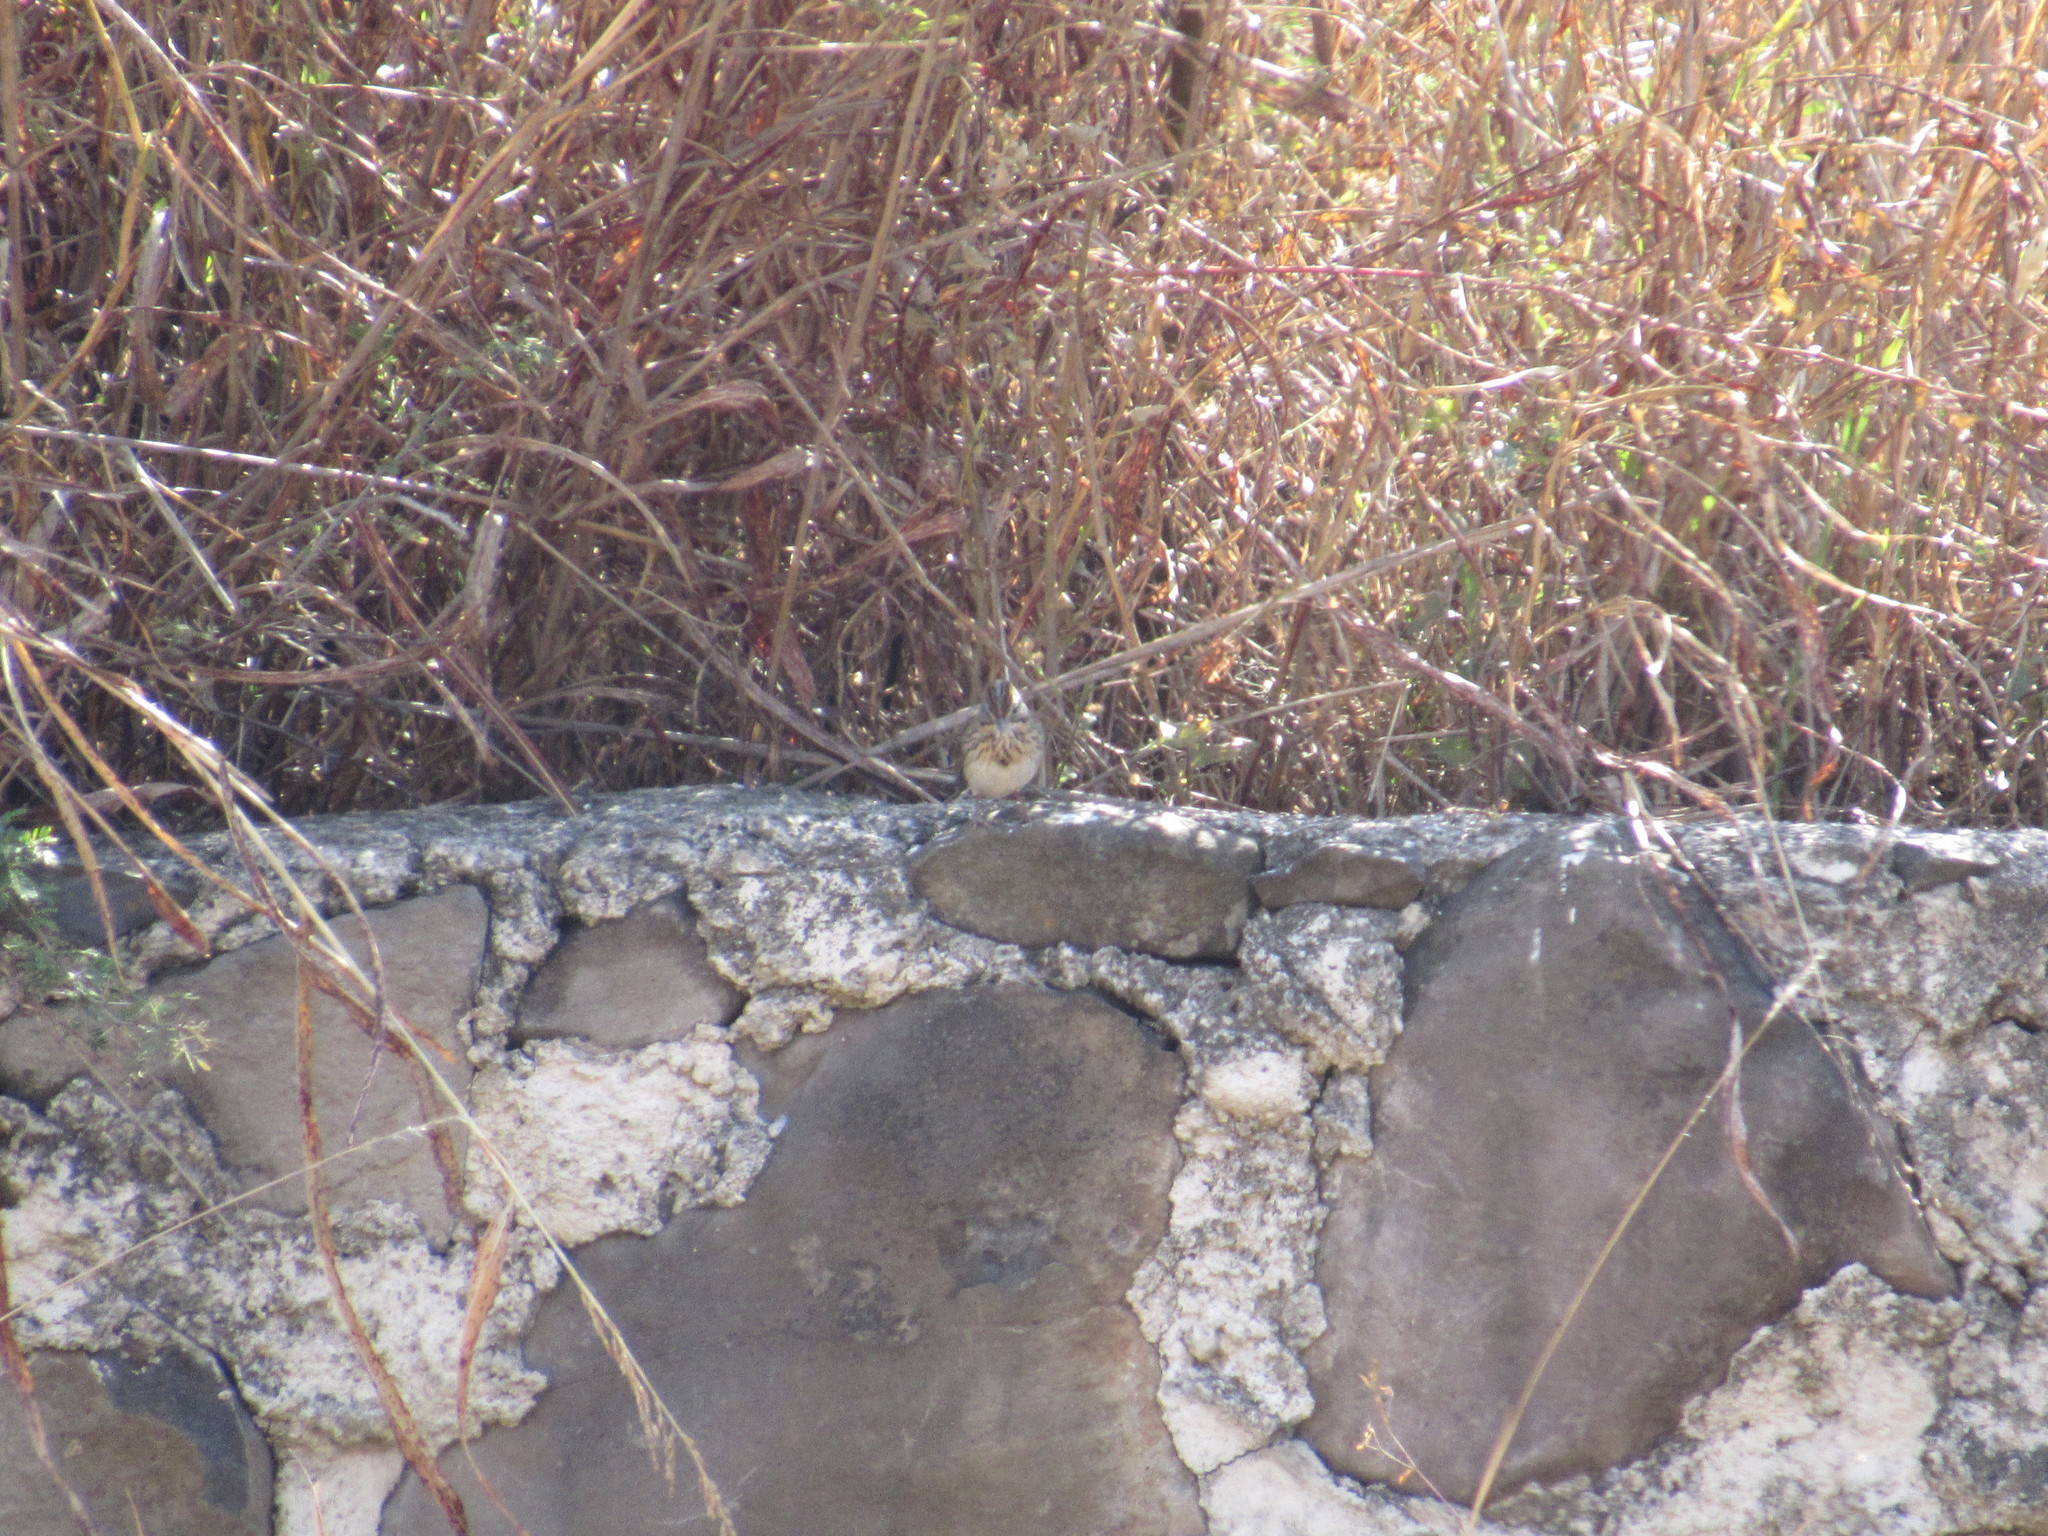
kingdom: Animalia
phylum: Chordata
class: Aves
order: Passeriformes
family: Passerellidae
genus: Melospiza
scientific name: Melospiza lincolnii
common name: Lincoln's sparrow
